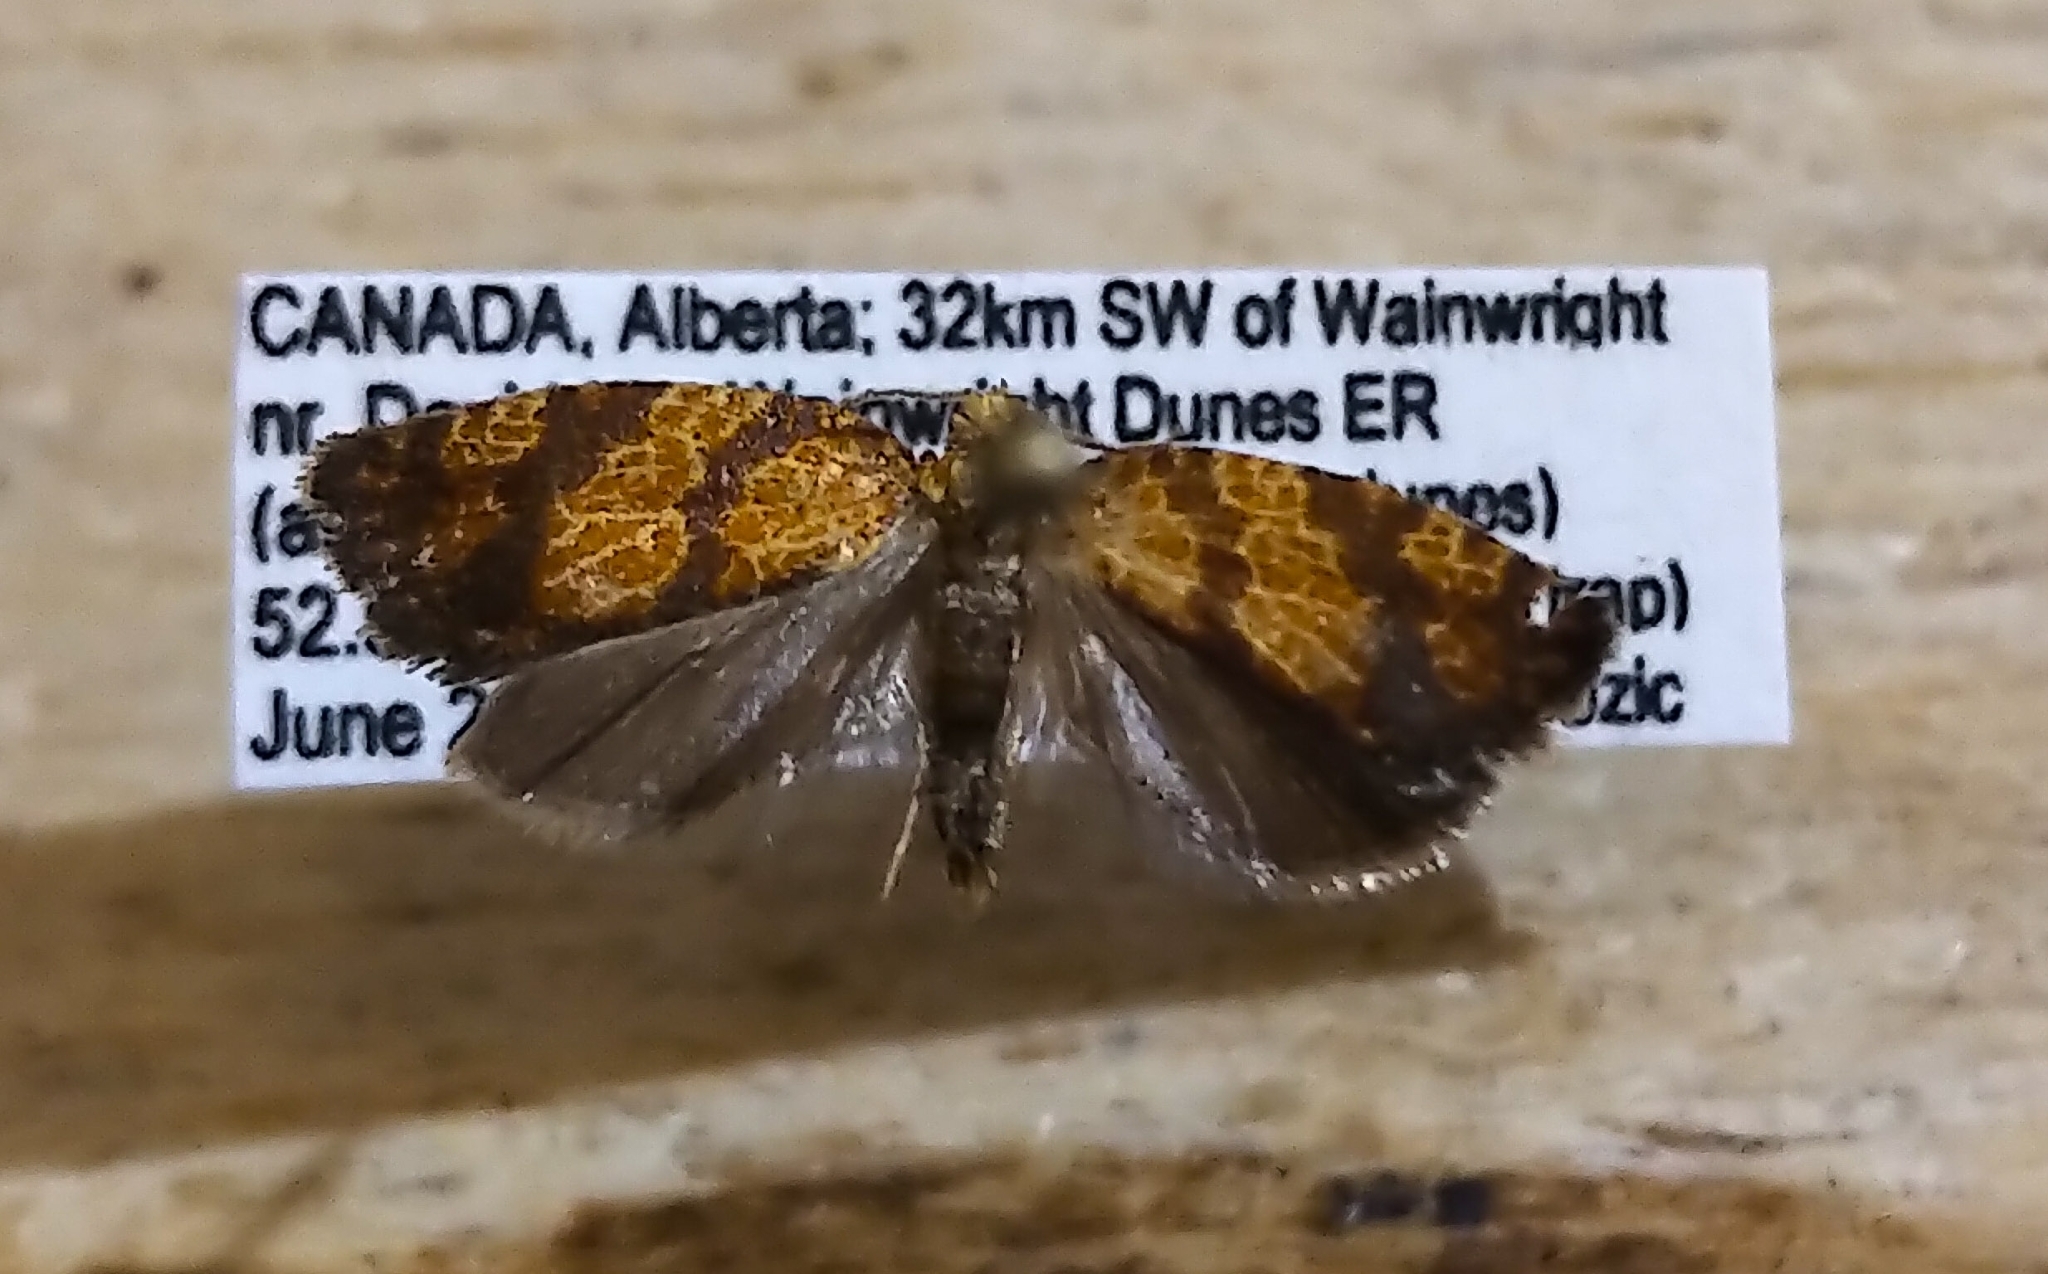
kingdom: Animalia
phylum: Arthropoda
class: Insecta
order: Lepidoptera
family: Tortricidae
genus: Argyrotaenia
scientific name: Argyrotaenia quadrifasciana
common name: Four-lined leafroller moth
